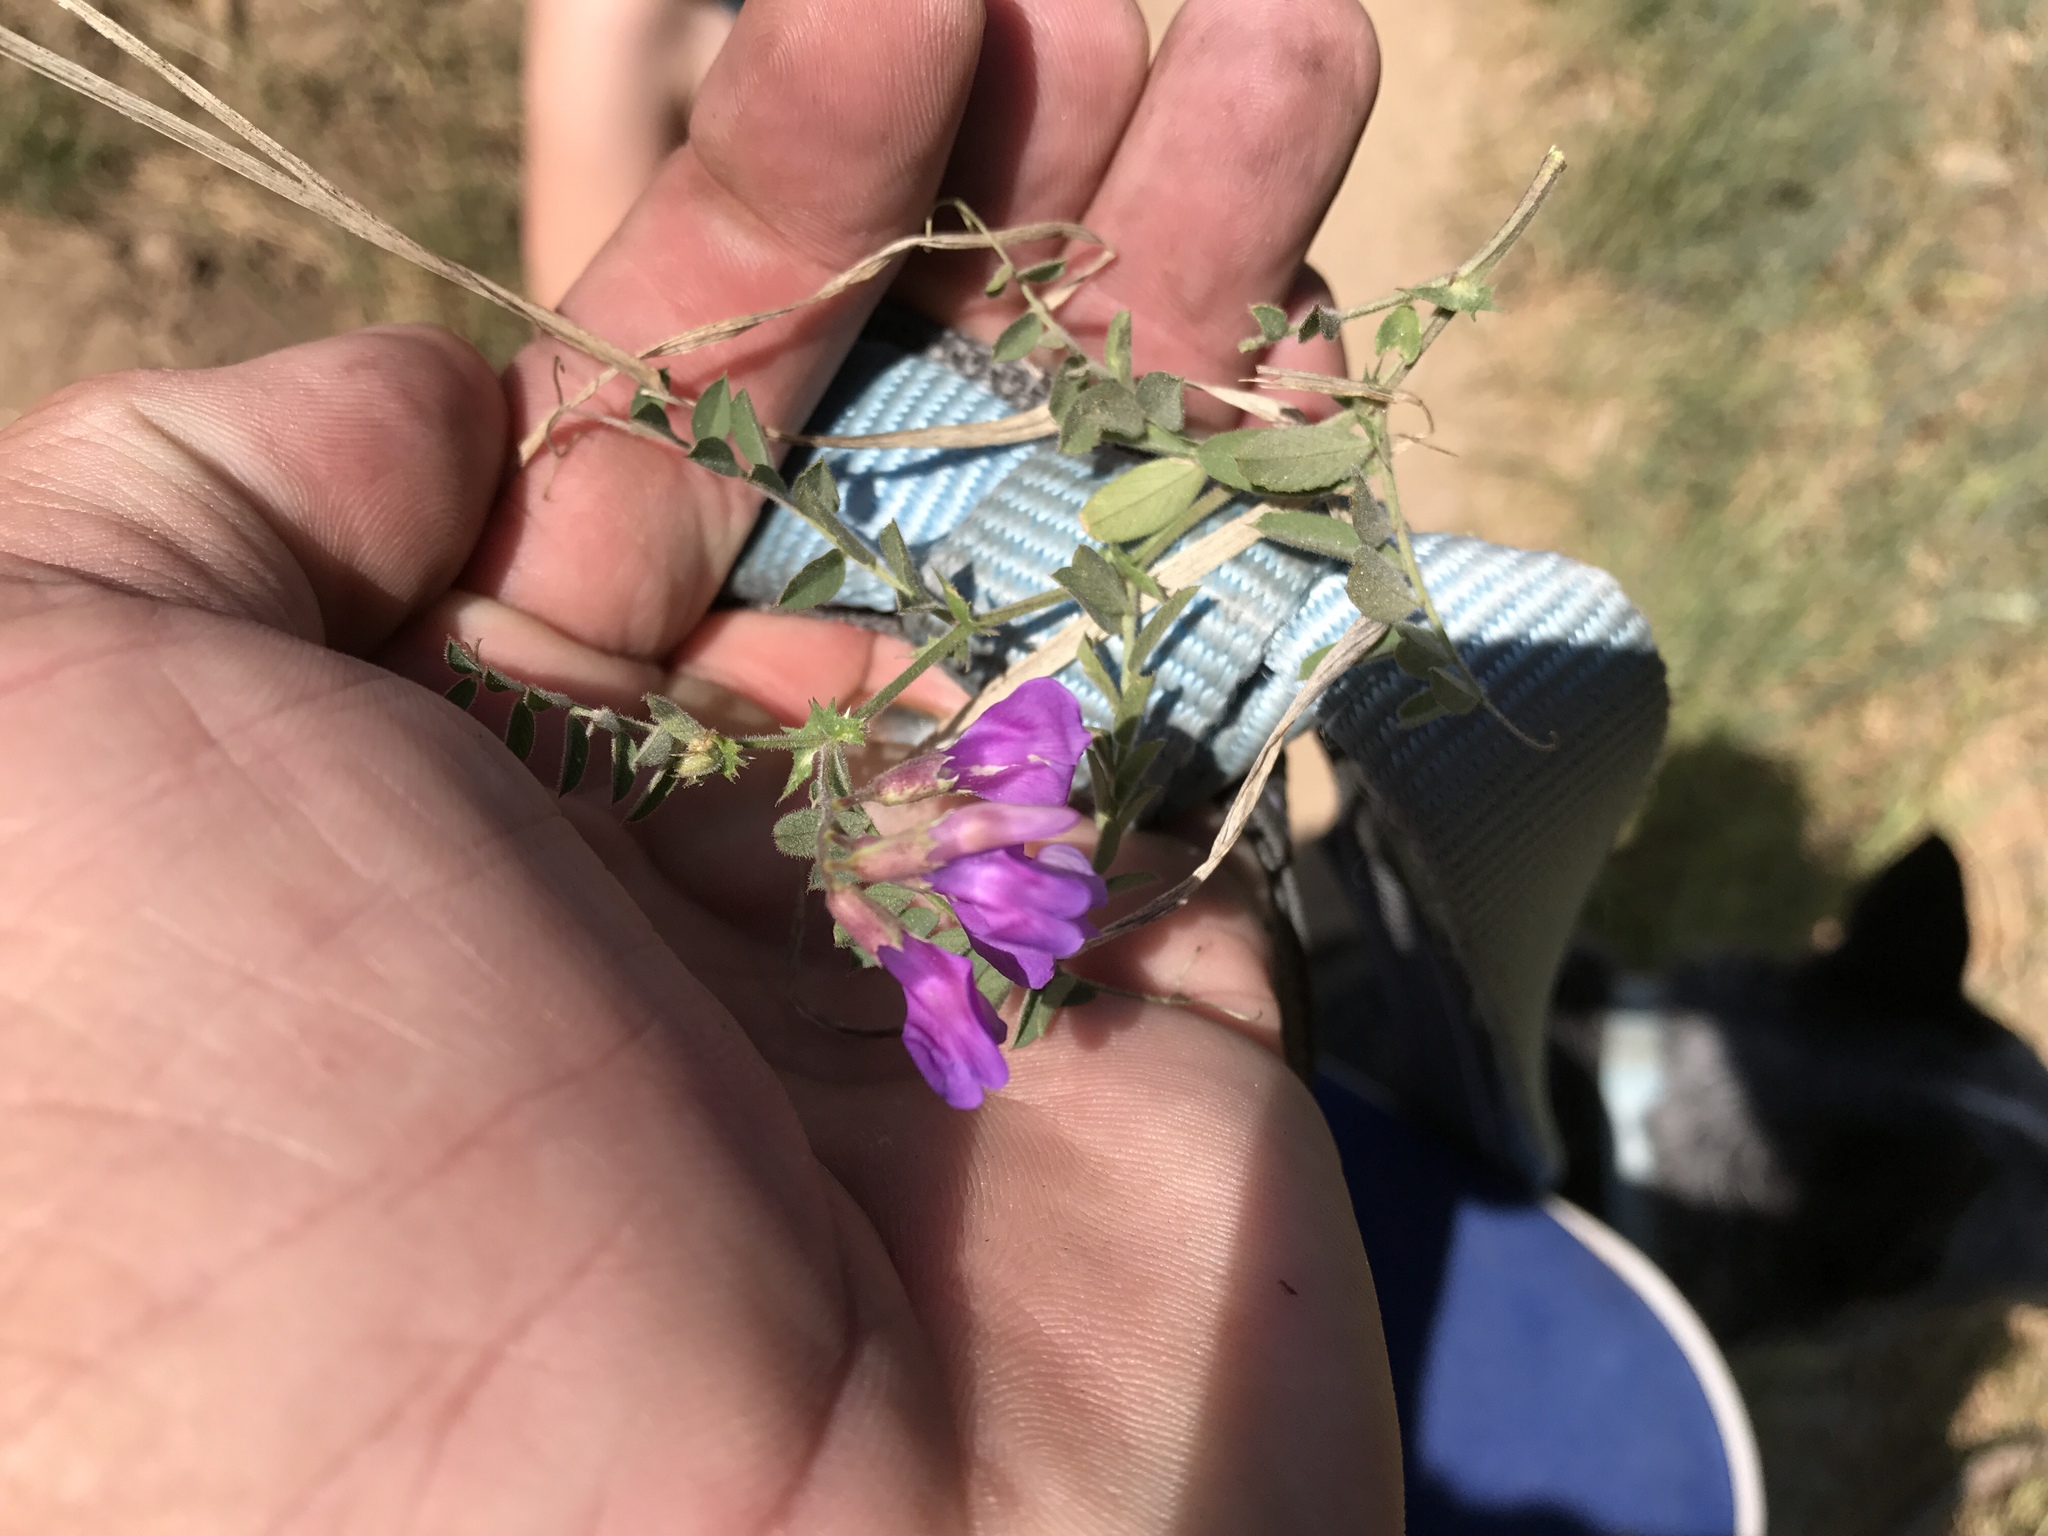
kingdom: Plantae
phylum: Tracheophyta
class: Magnoliopsida
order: Fabales
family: Fabaceae
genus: Vicia
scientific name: Vicia americana
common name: American vetch
